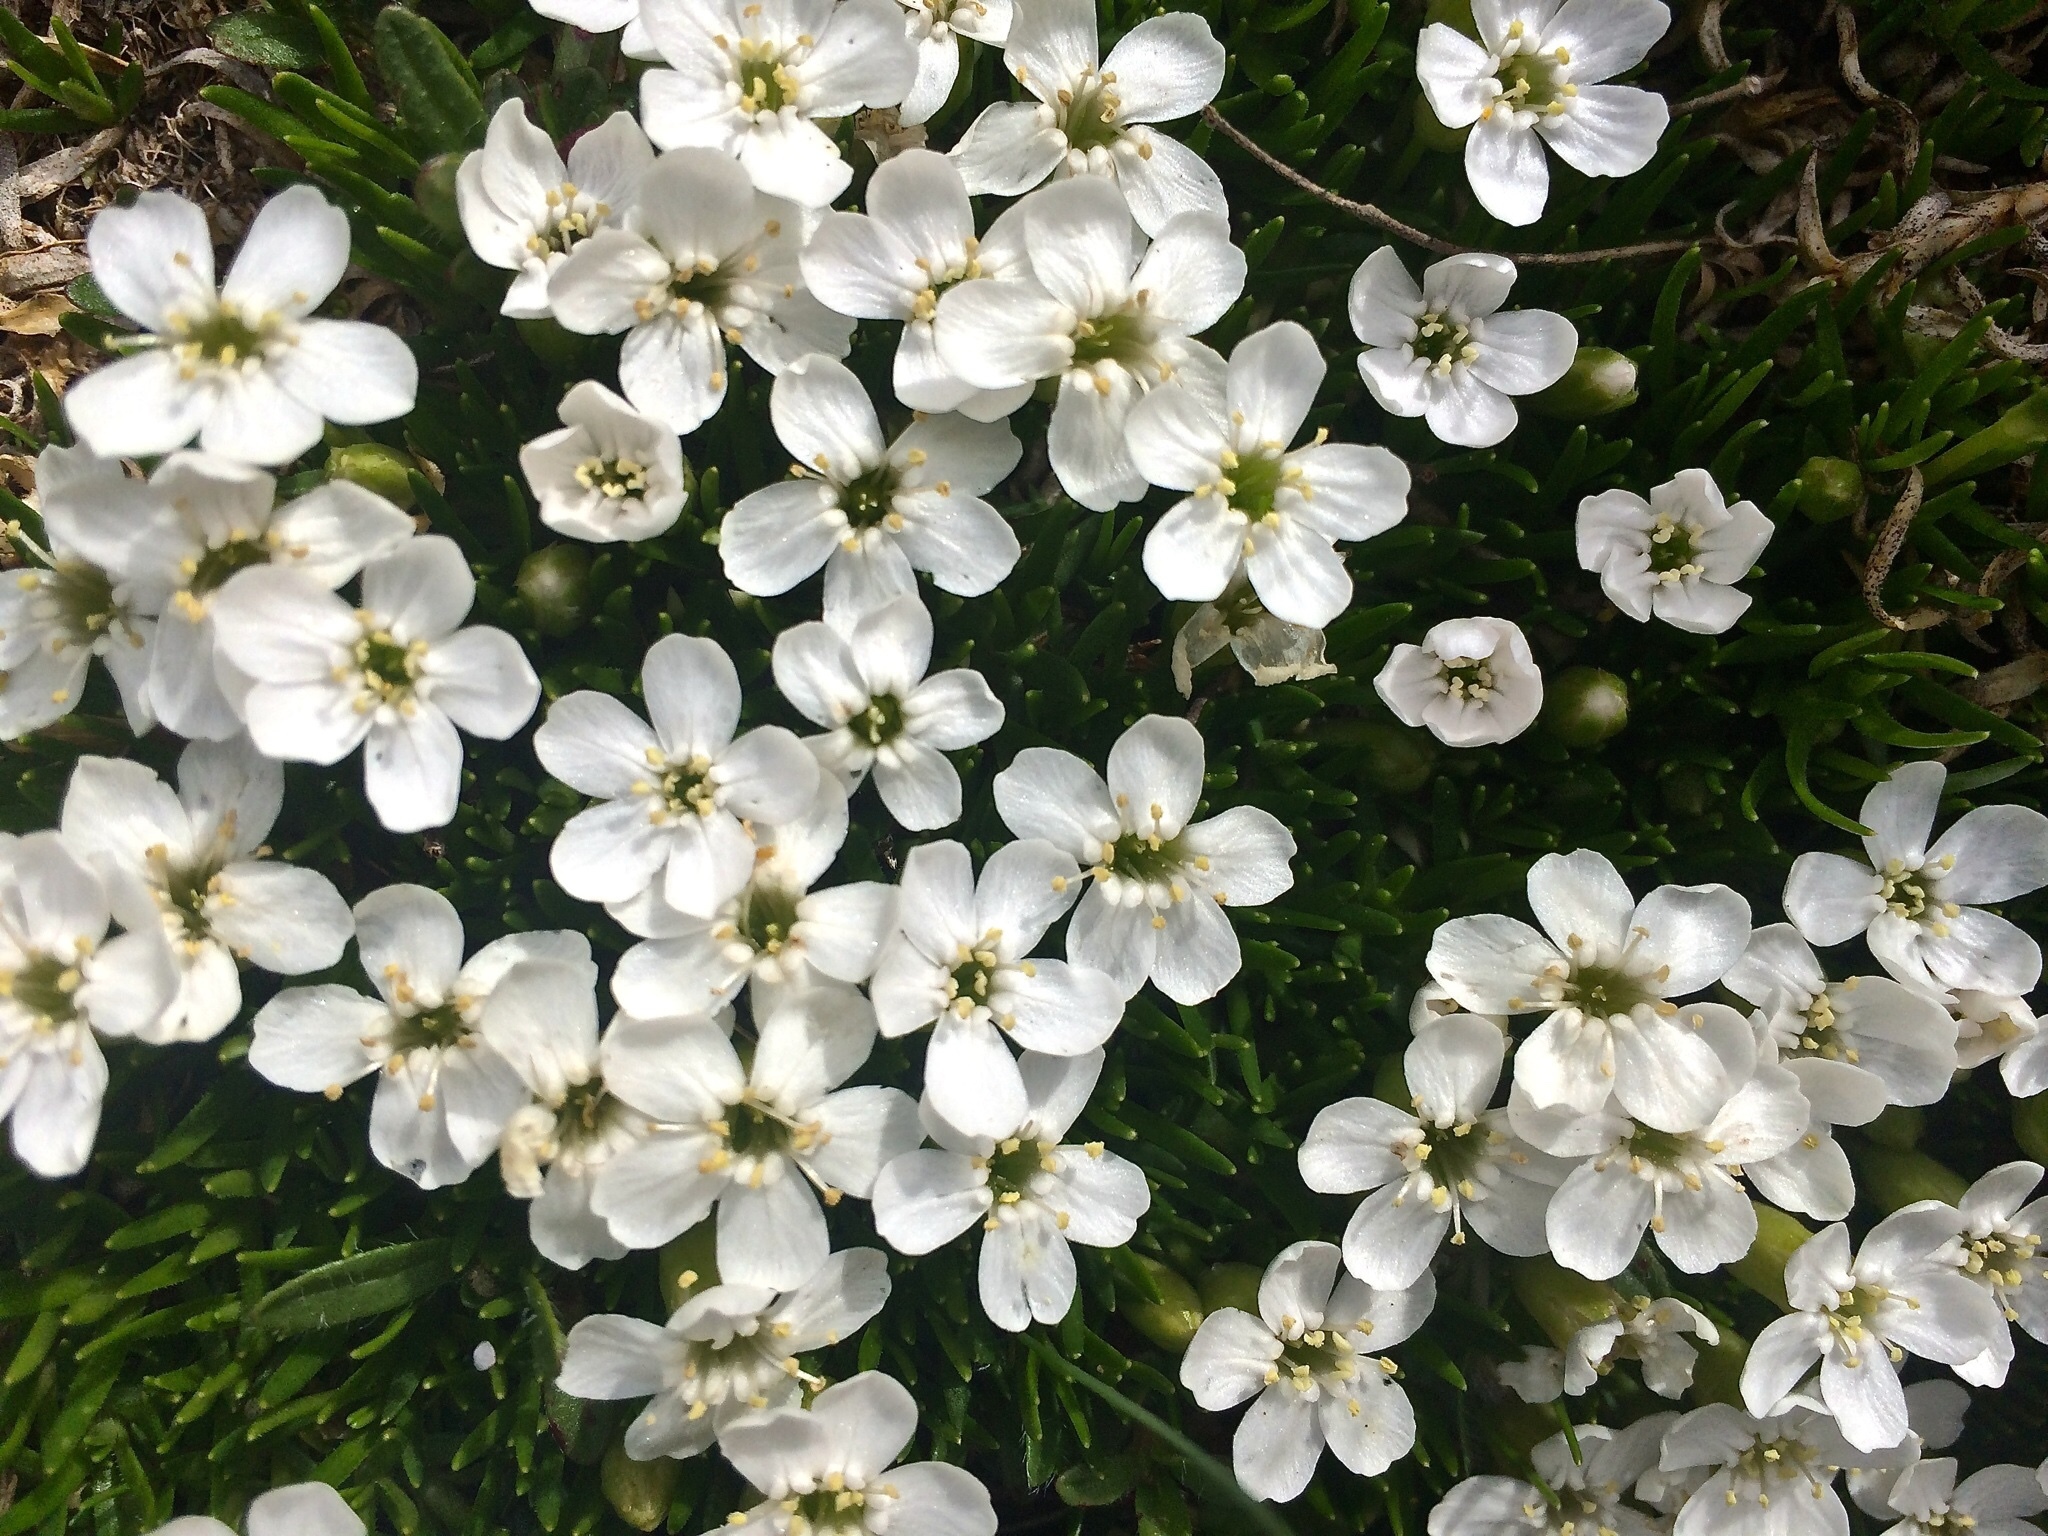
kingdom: Plantae
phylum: Tracheophyta
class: Magnoliopsida
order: Caryophyllales
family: Caryophyllaceae
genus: Silene
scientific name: Silene acaulis
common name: Moss campion
